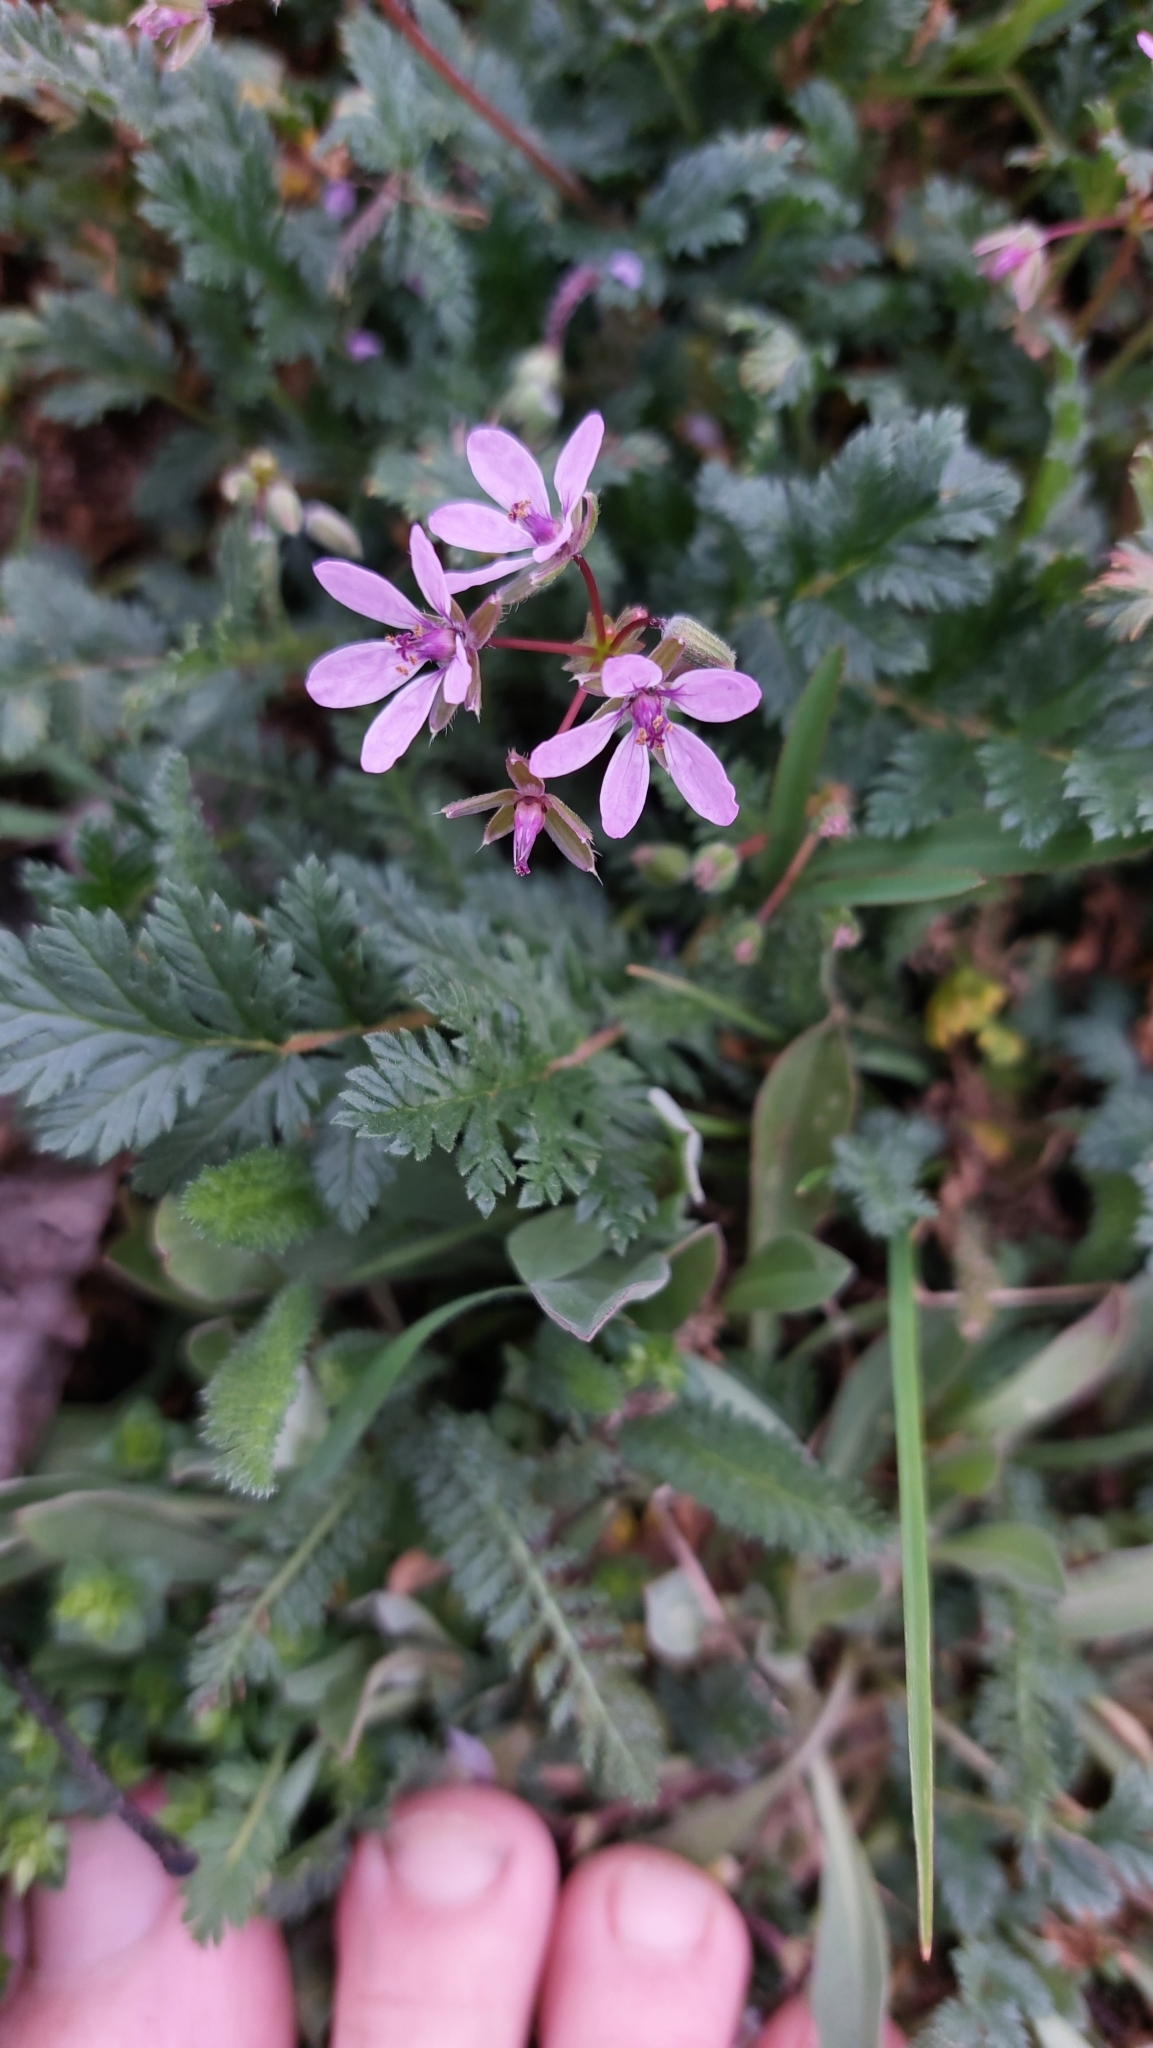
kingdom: Plantae
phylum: Tracheophyta
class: Magnoliopsida
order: Geraniales
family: Geraniaceae
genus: Erodium
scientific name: Erodium cicutarium
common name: Common stork's-bill
